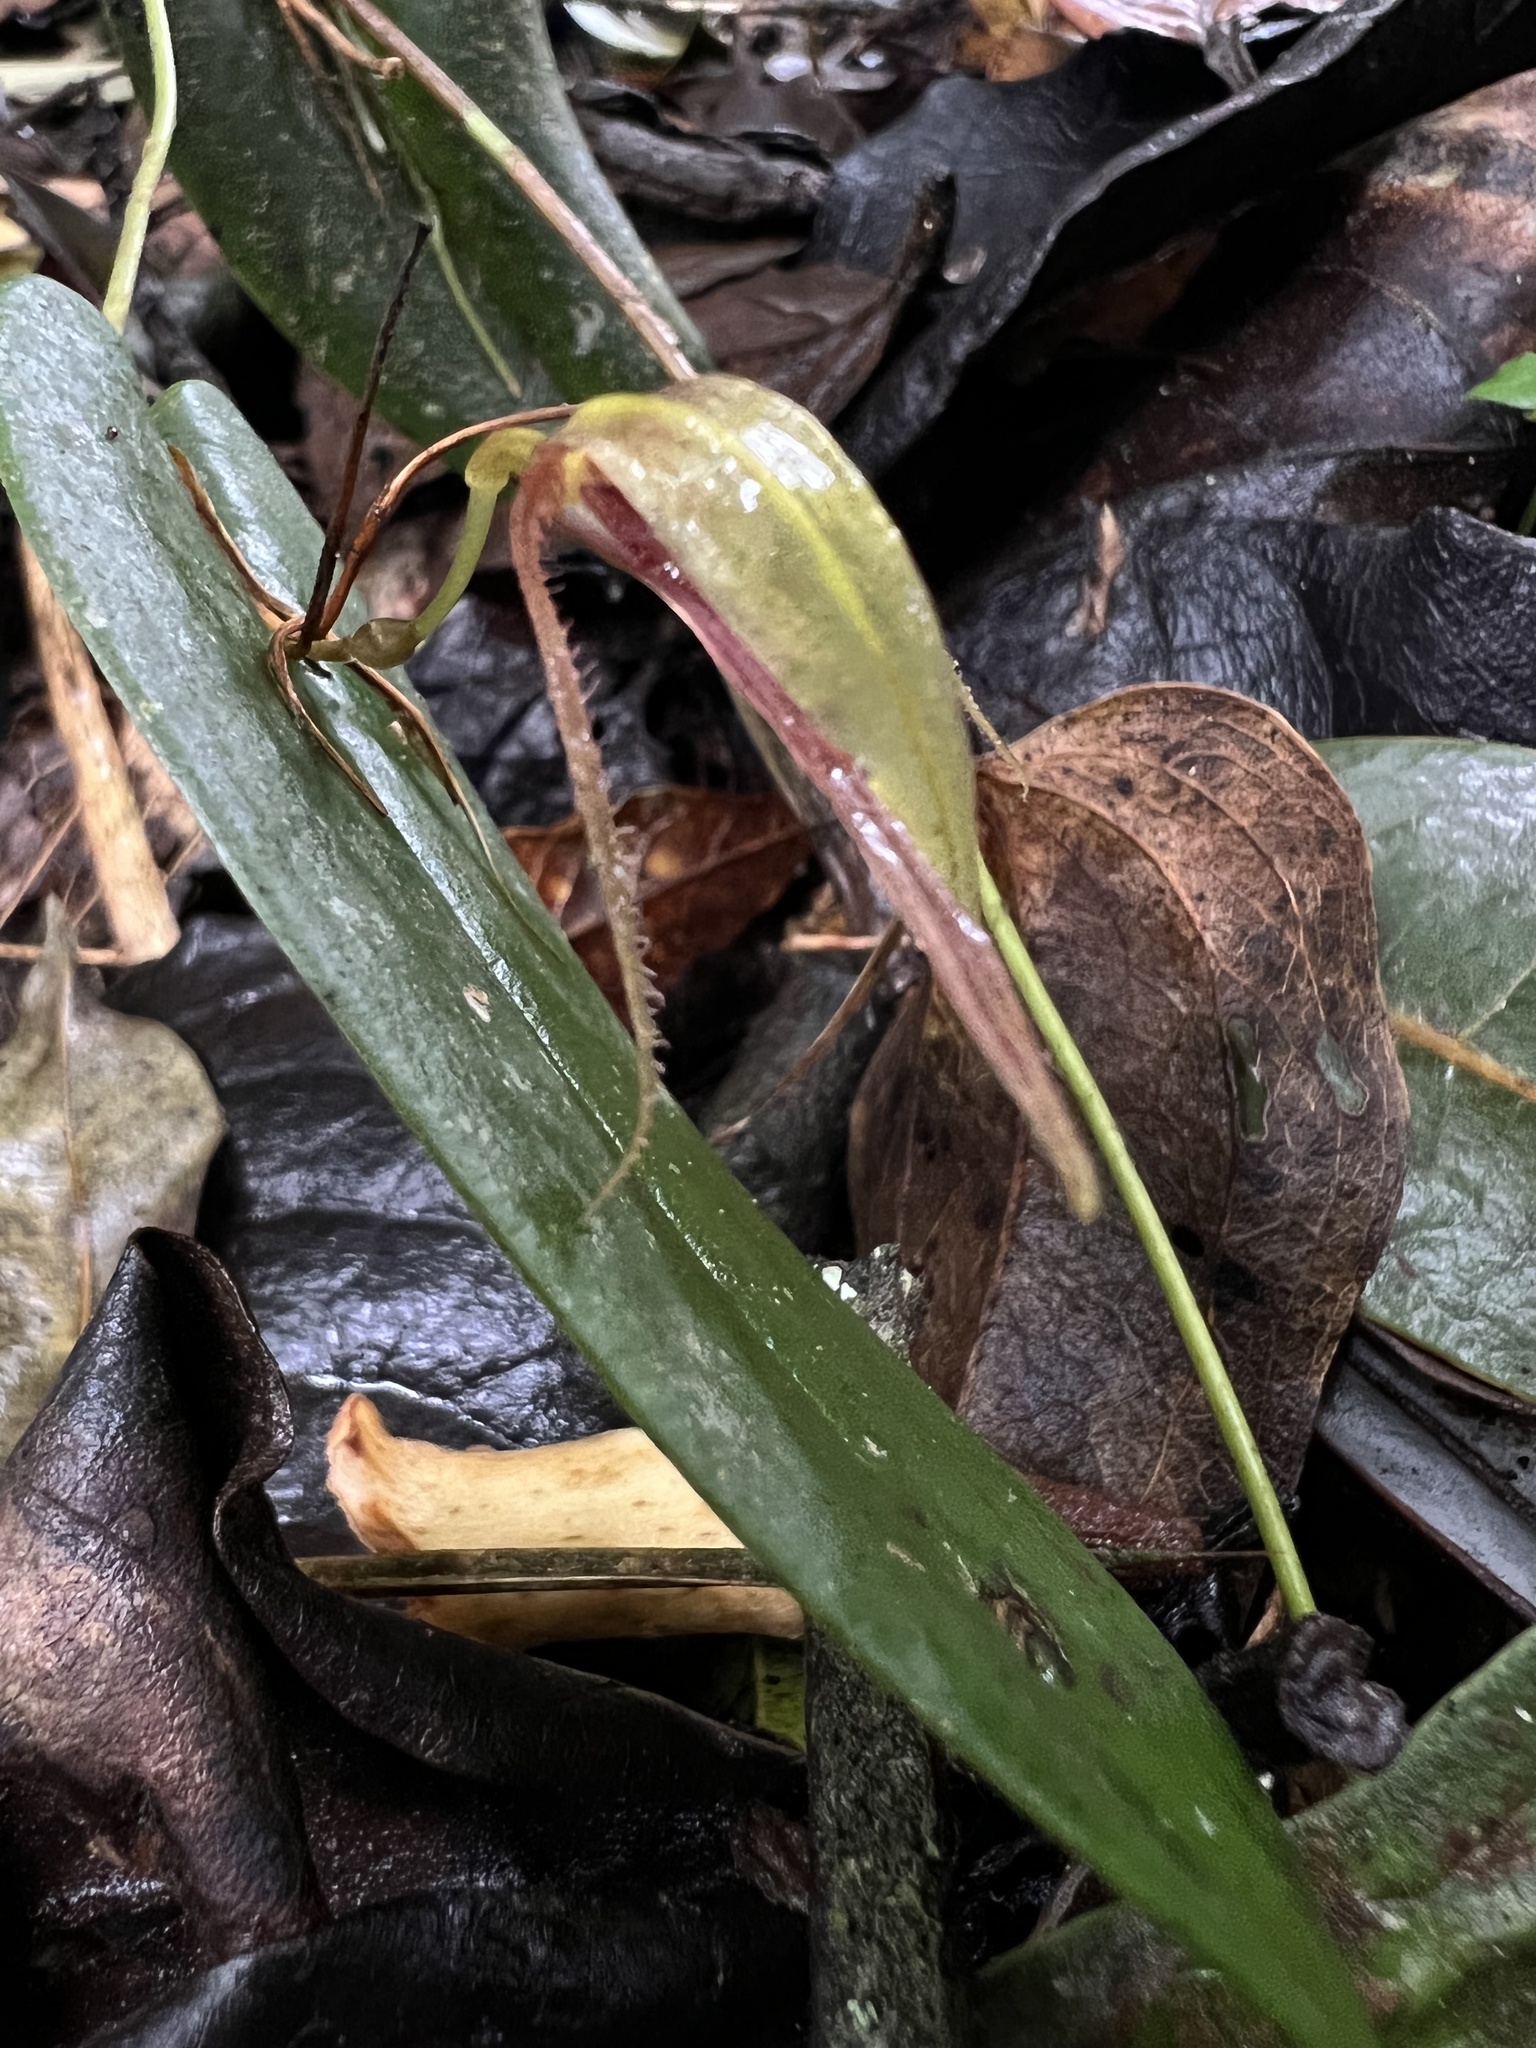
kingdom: Plantae
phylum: Tracheophyta
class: Liliopsida
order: Asparagales
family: Orchidaceae
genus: Pleurothallis
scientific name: Pleurothallis killipii
